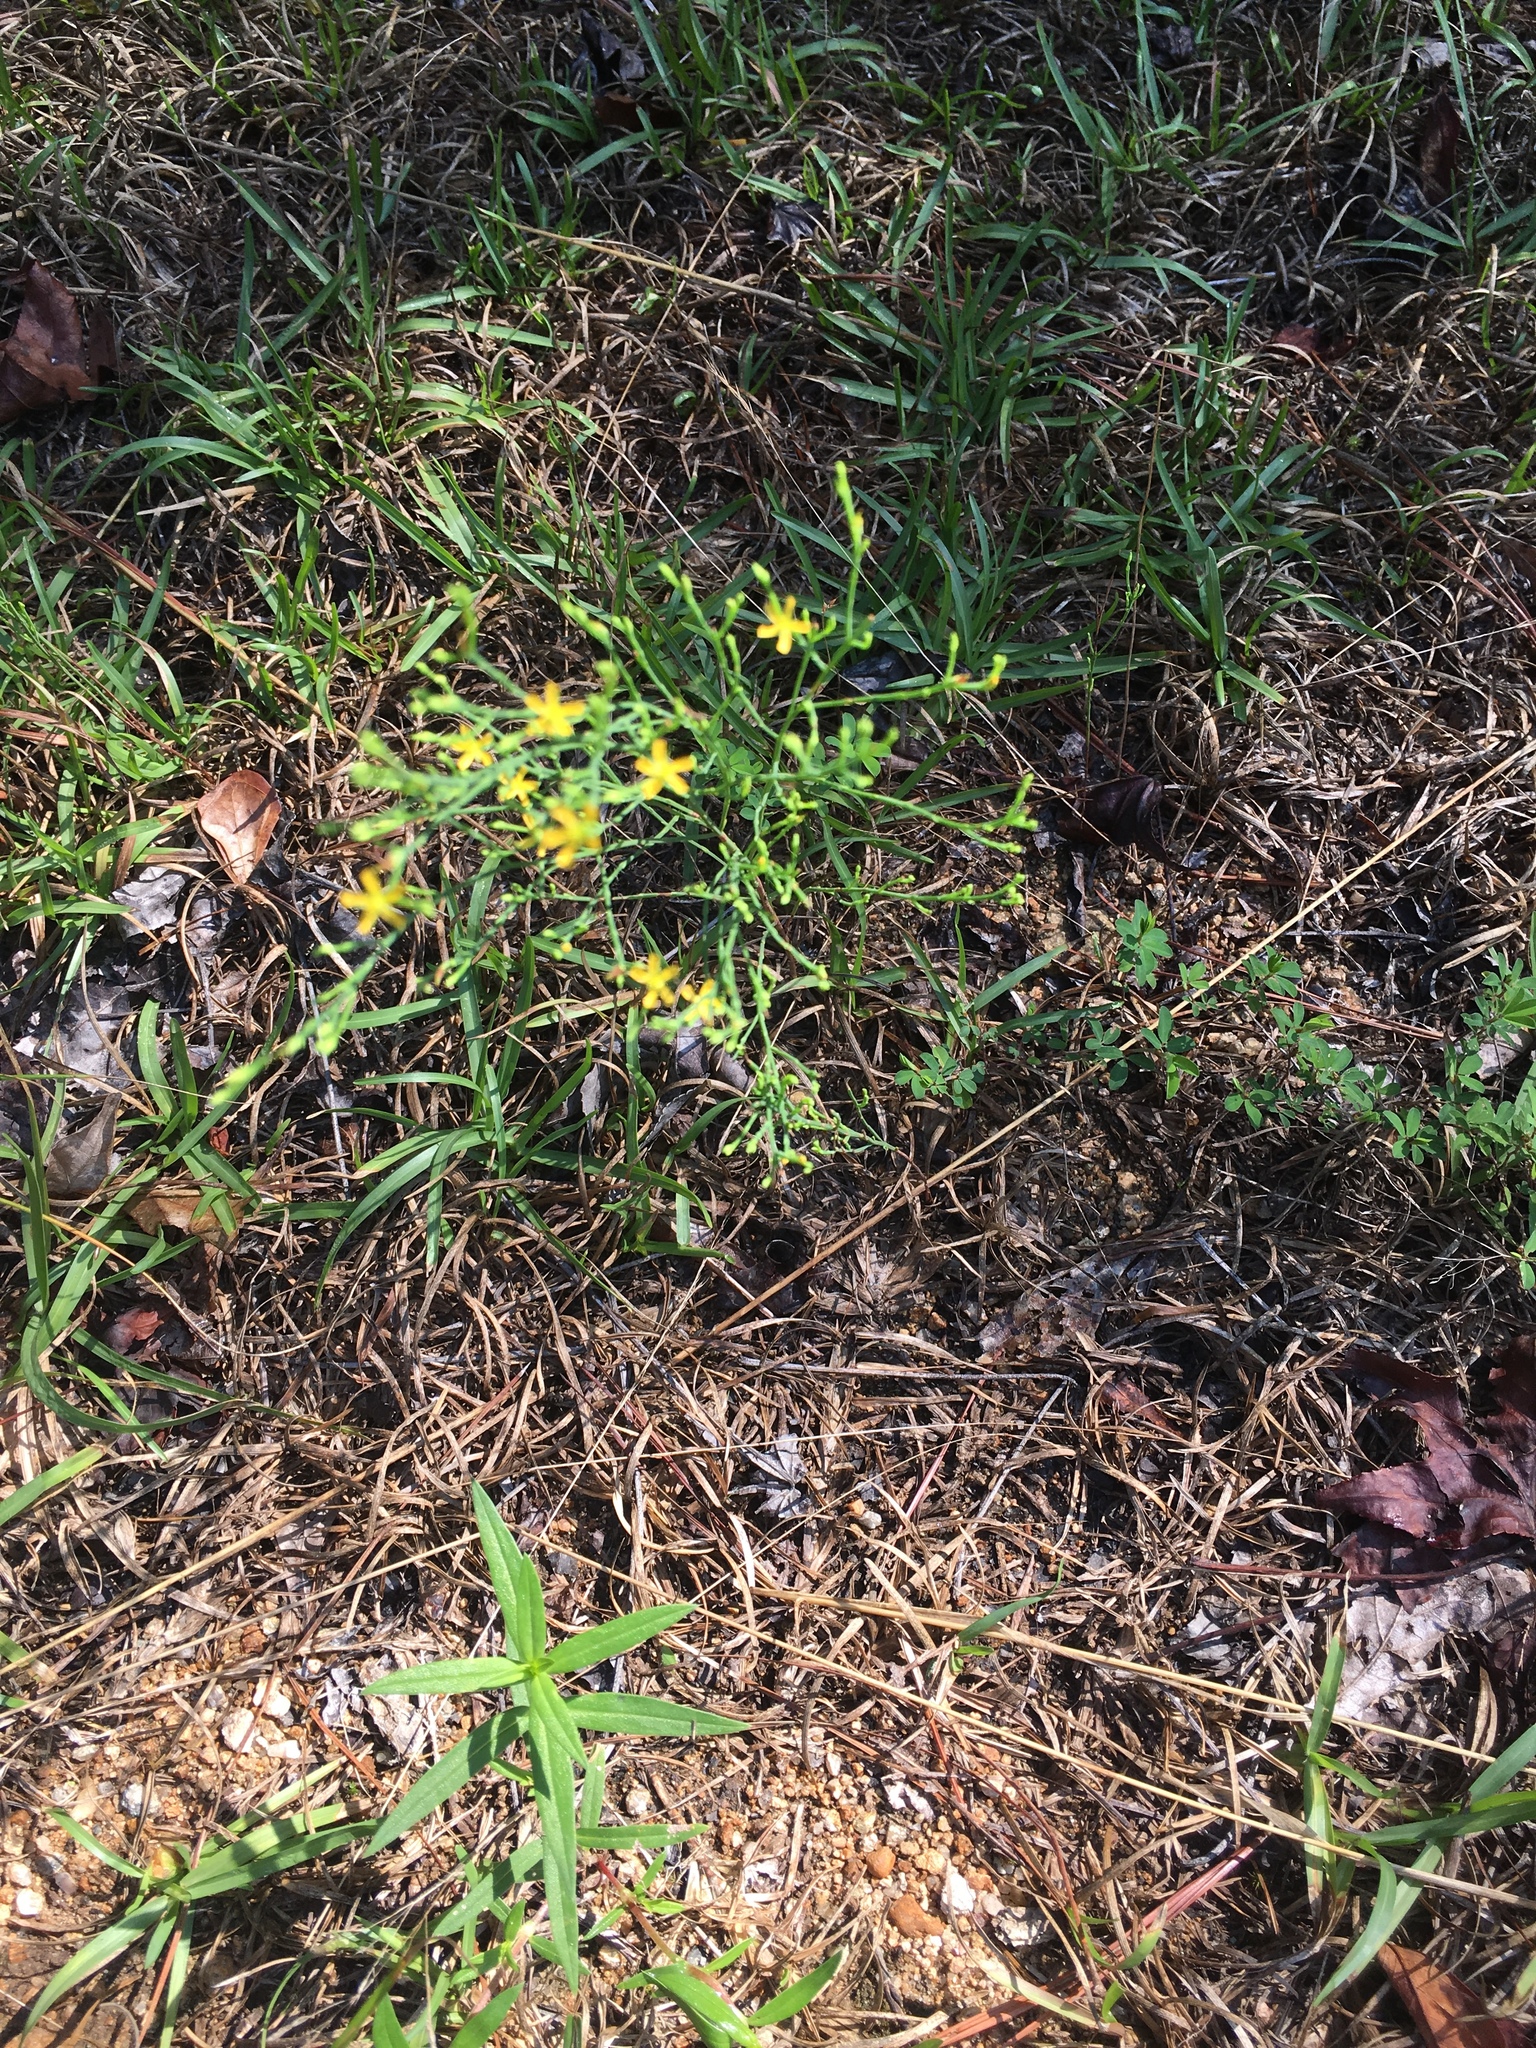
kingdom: Plantae
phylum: Tracheophyta
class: Magnoliopsida
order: Malpighiales
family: Hypericaceae
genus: Hypericum
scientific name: Hypericum gentianoides
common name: Gentian-leaved st. john's-wort
